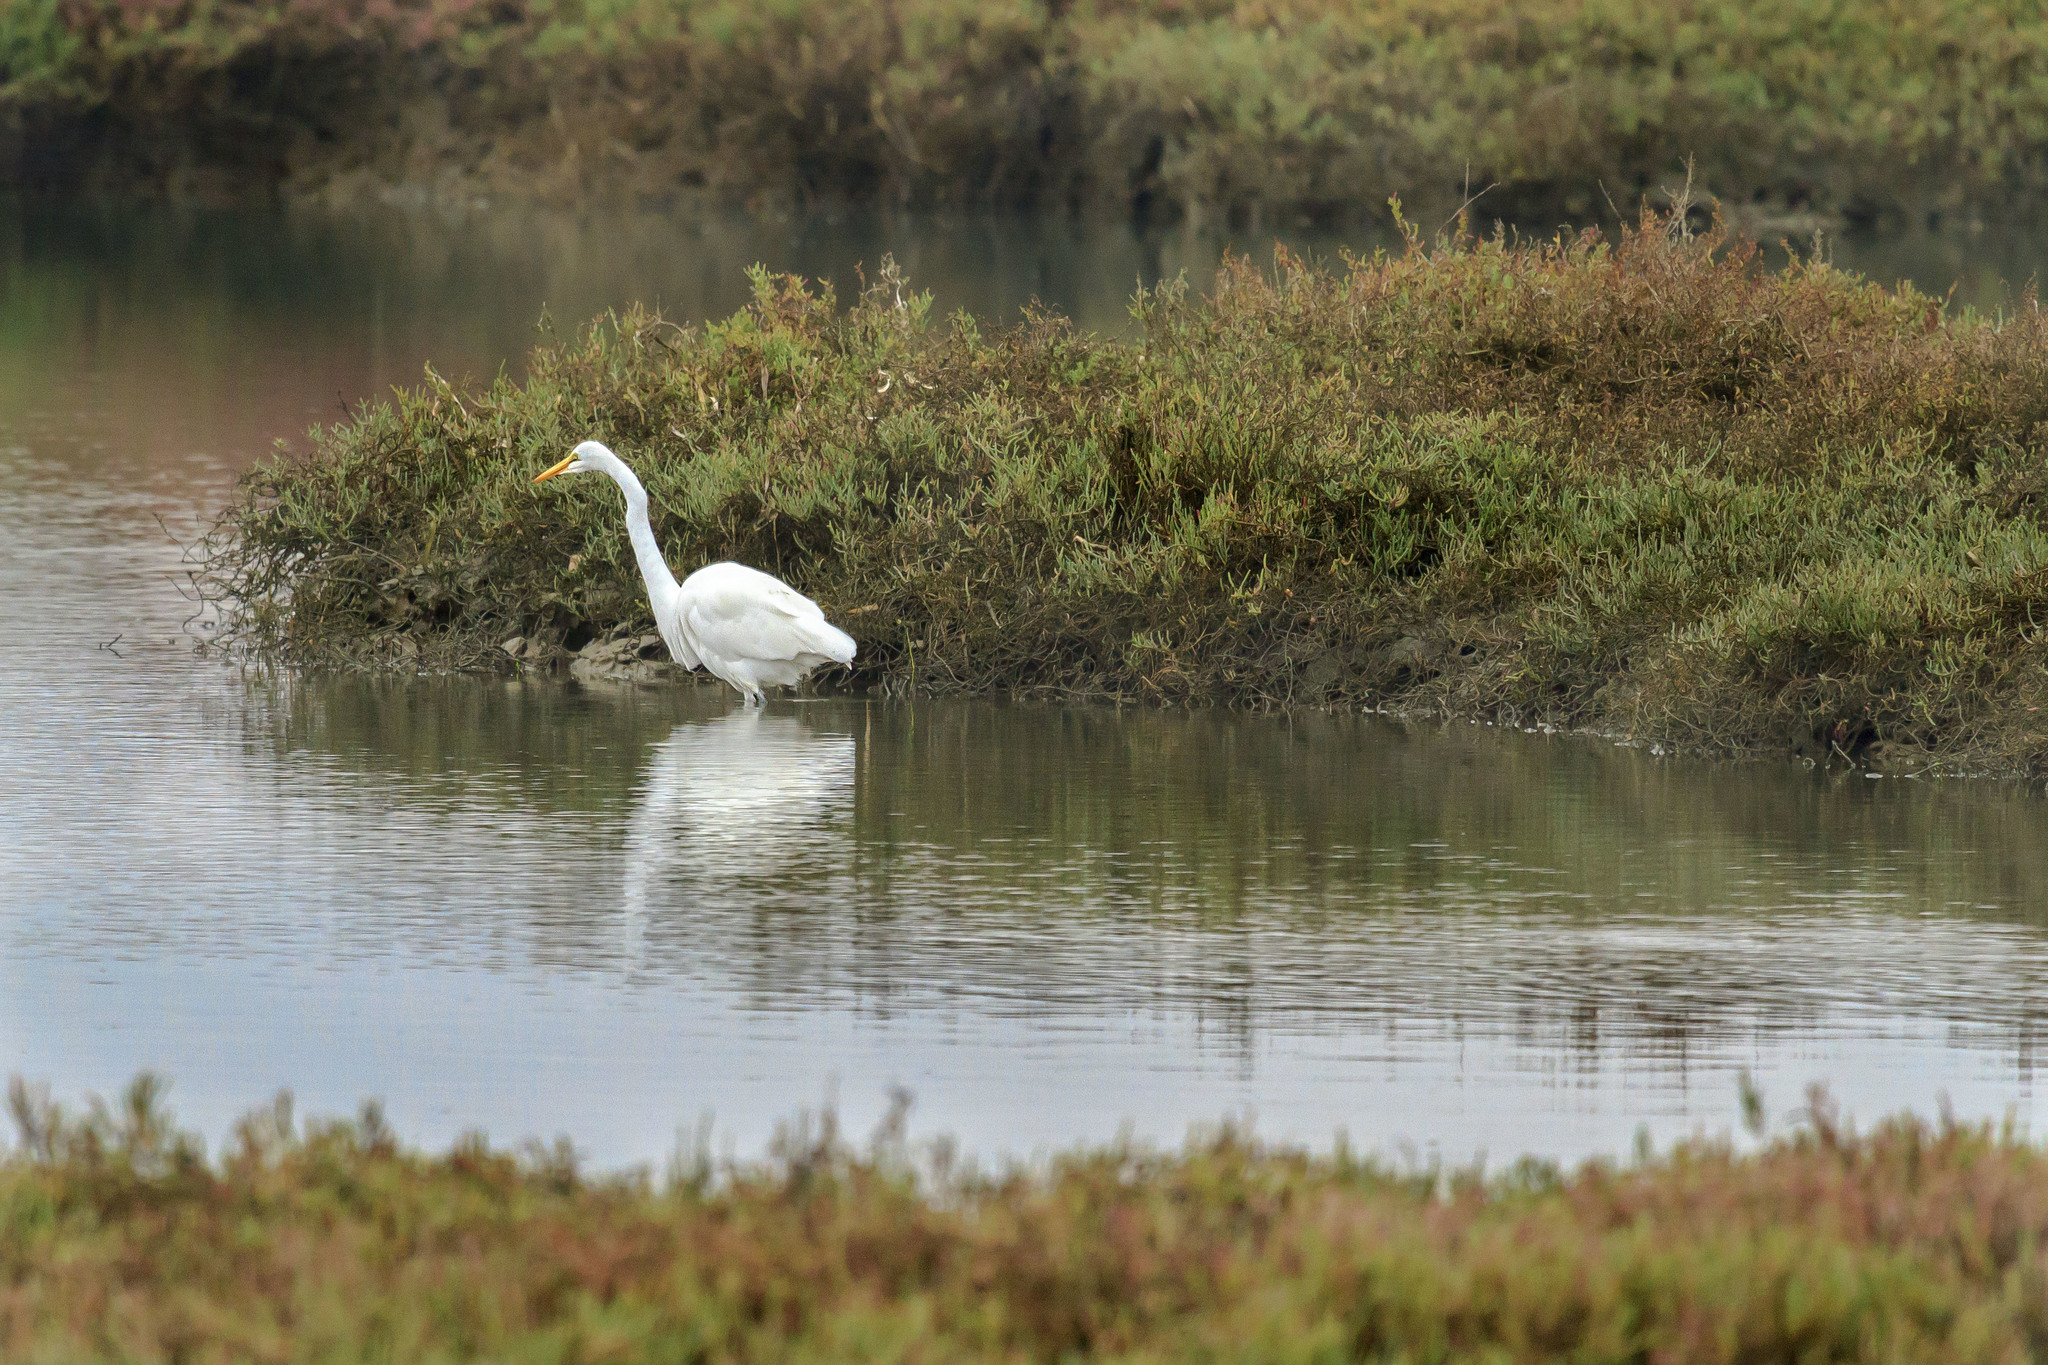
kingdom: Animalia
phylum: Chordata
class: Aves
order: Pelecaniformes
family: Ardeidae
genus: Ardea
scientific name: Ardea alba
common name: Great egret
